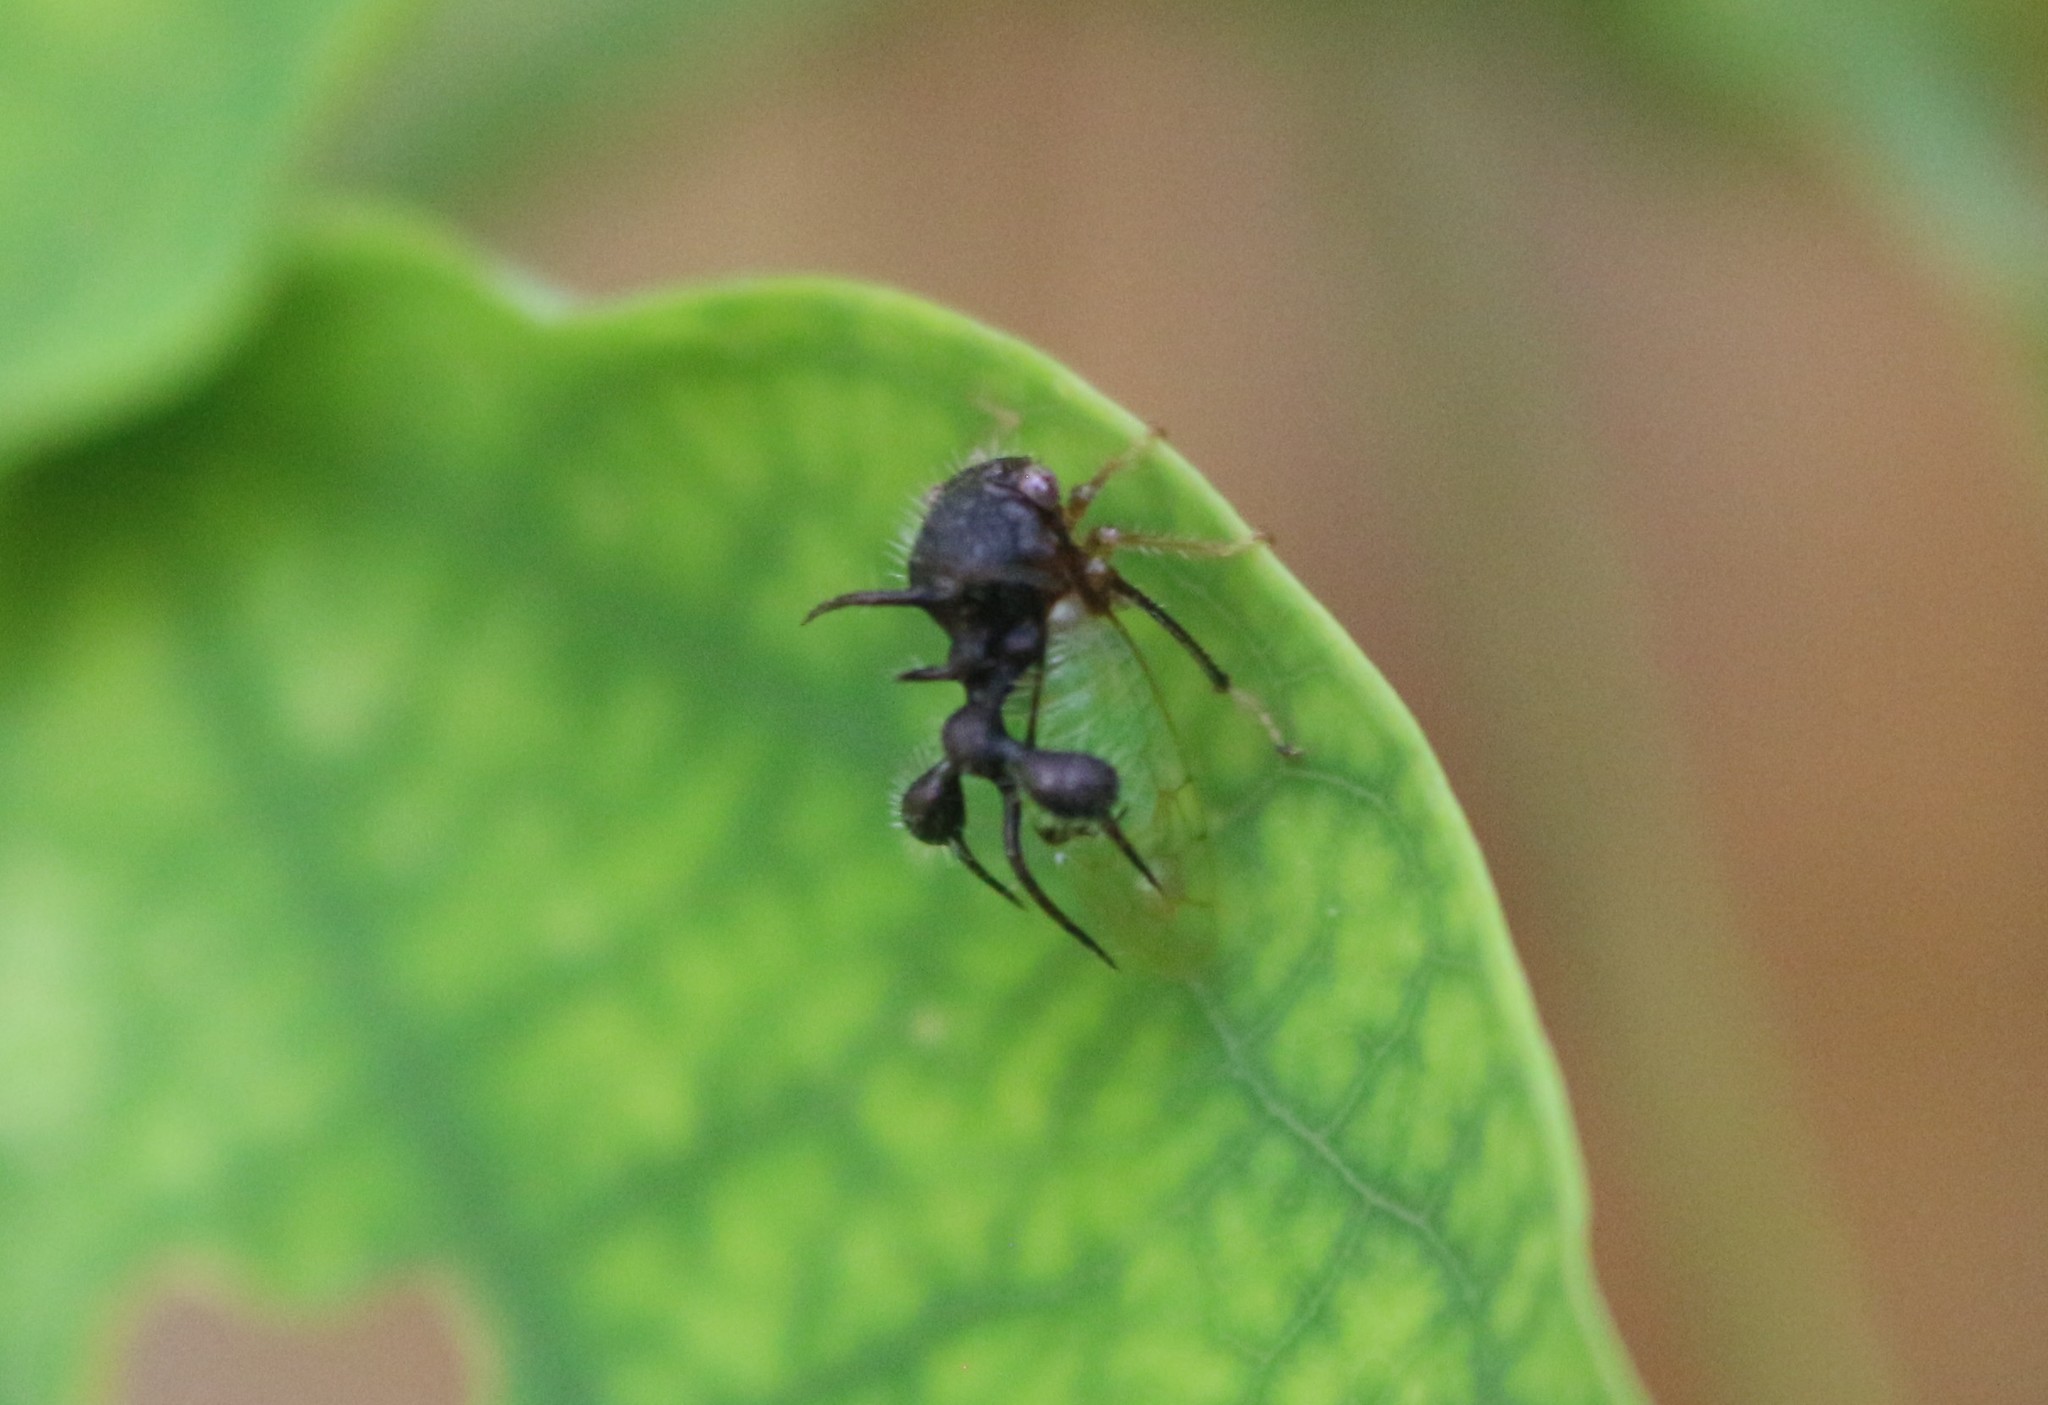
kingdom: Animalia
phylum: Arthropoda
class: Insecta
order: Hemiptera
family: Membracidae
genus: Cyphonia
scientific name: Cyphonia clavata
